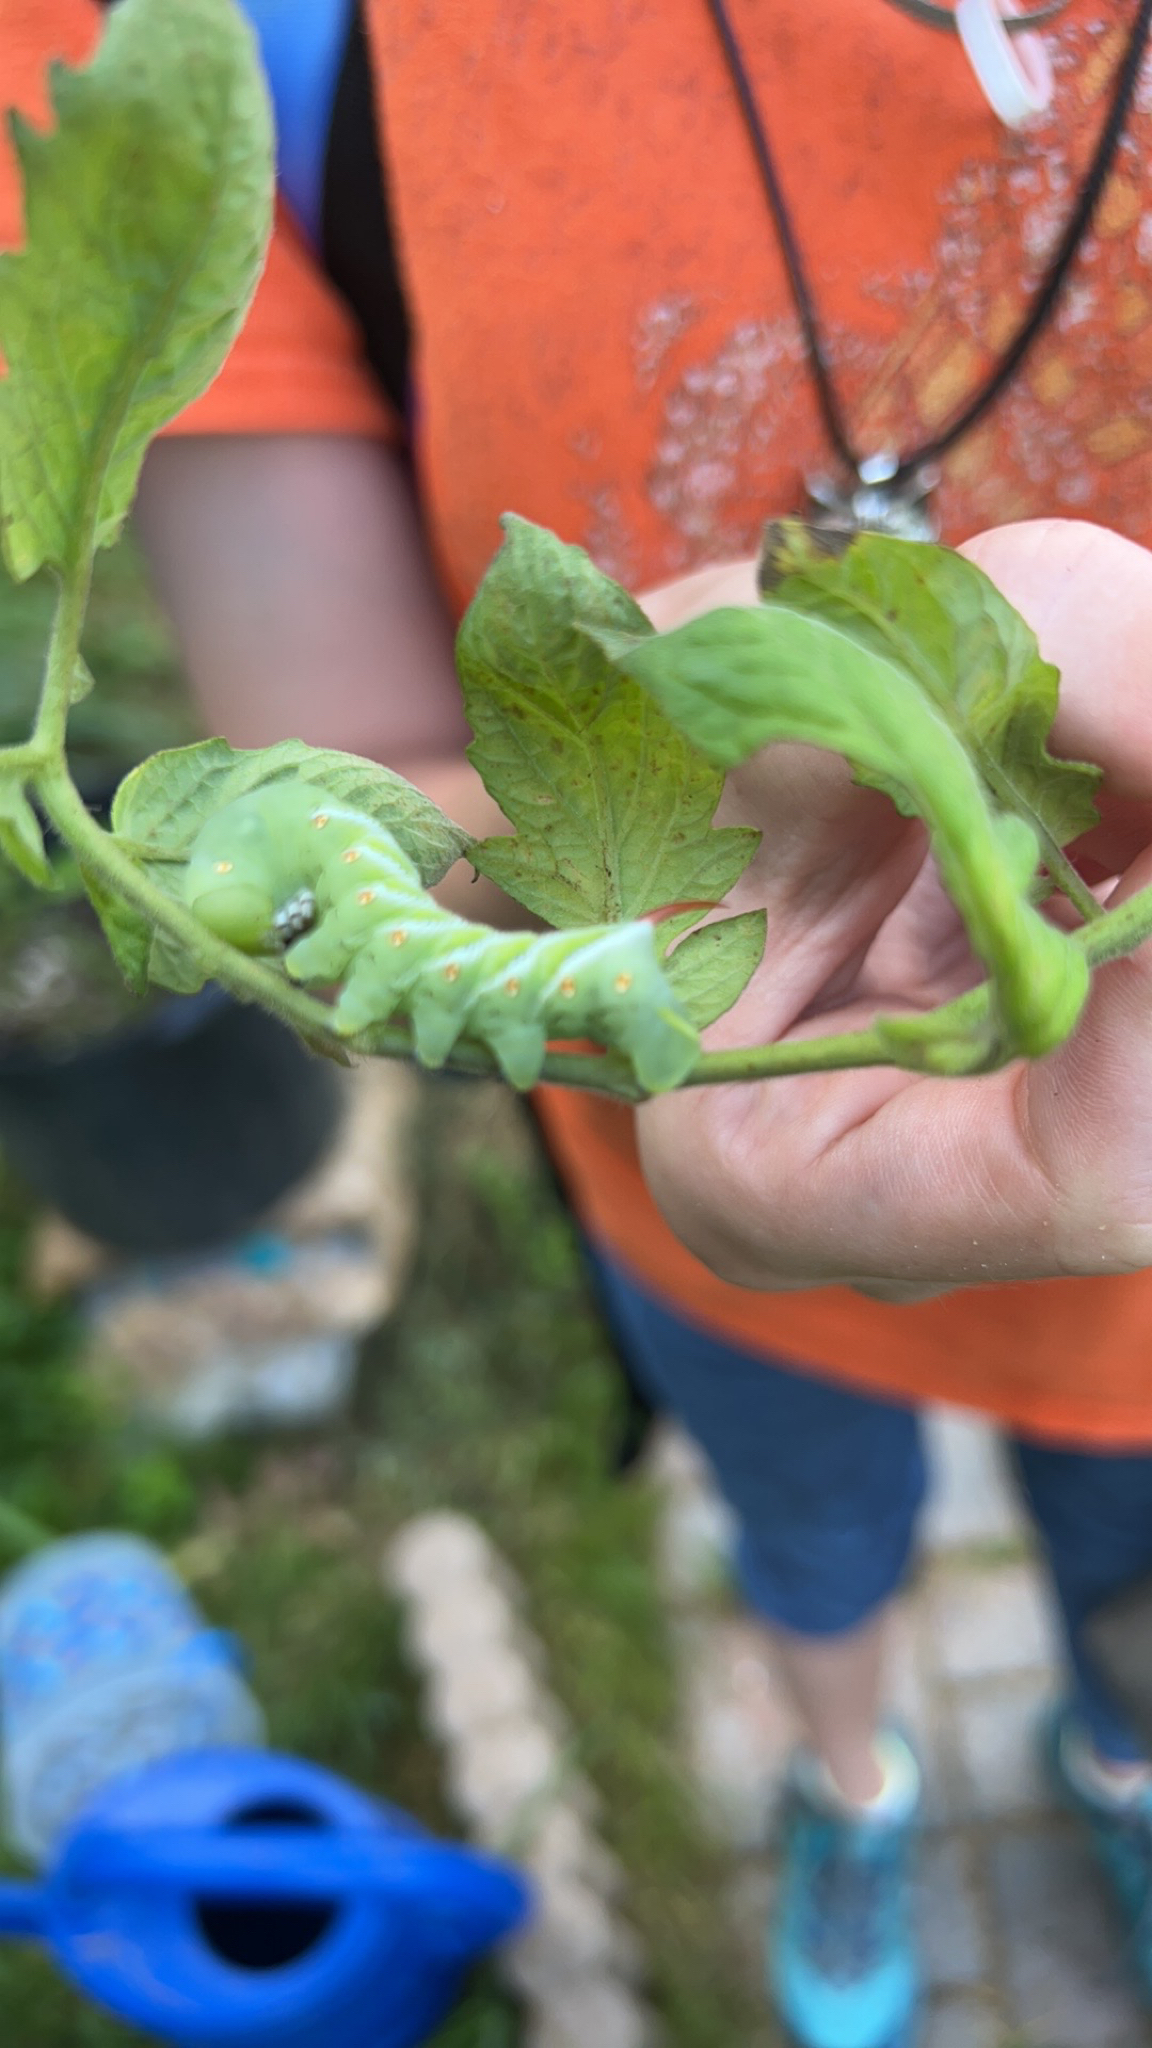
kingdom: Animalia
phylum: Arthropoda
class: Insecta
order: Lepidoptera
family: Sphingidae
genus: Manduca
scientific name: Manduca sexta
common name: Carolina sphinx
